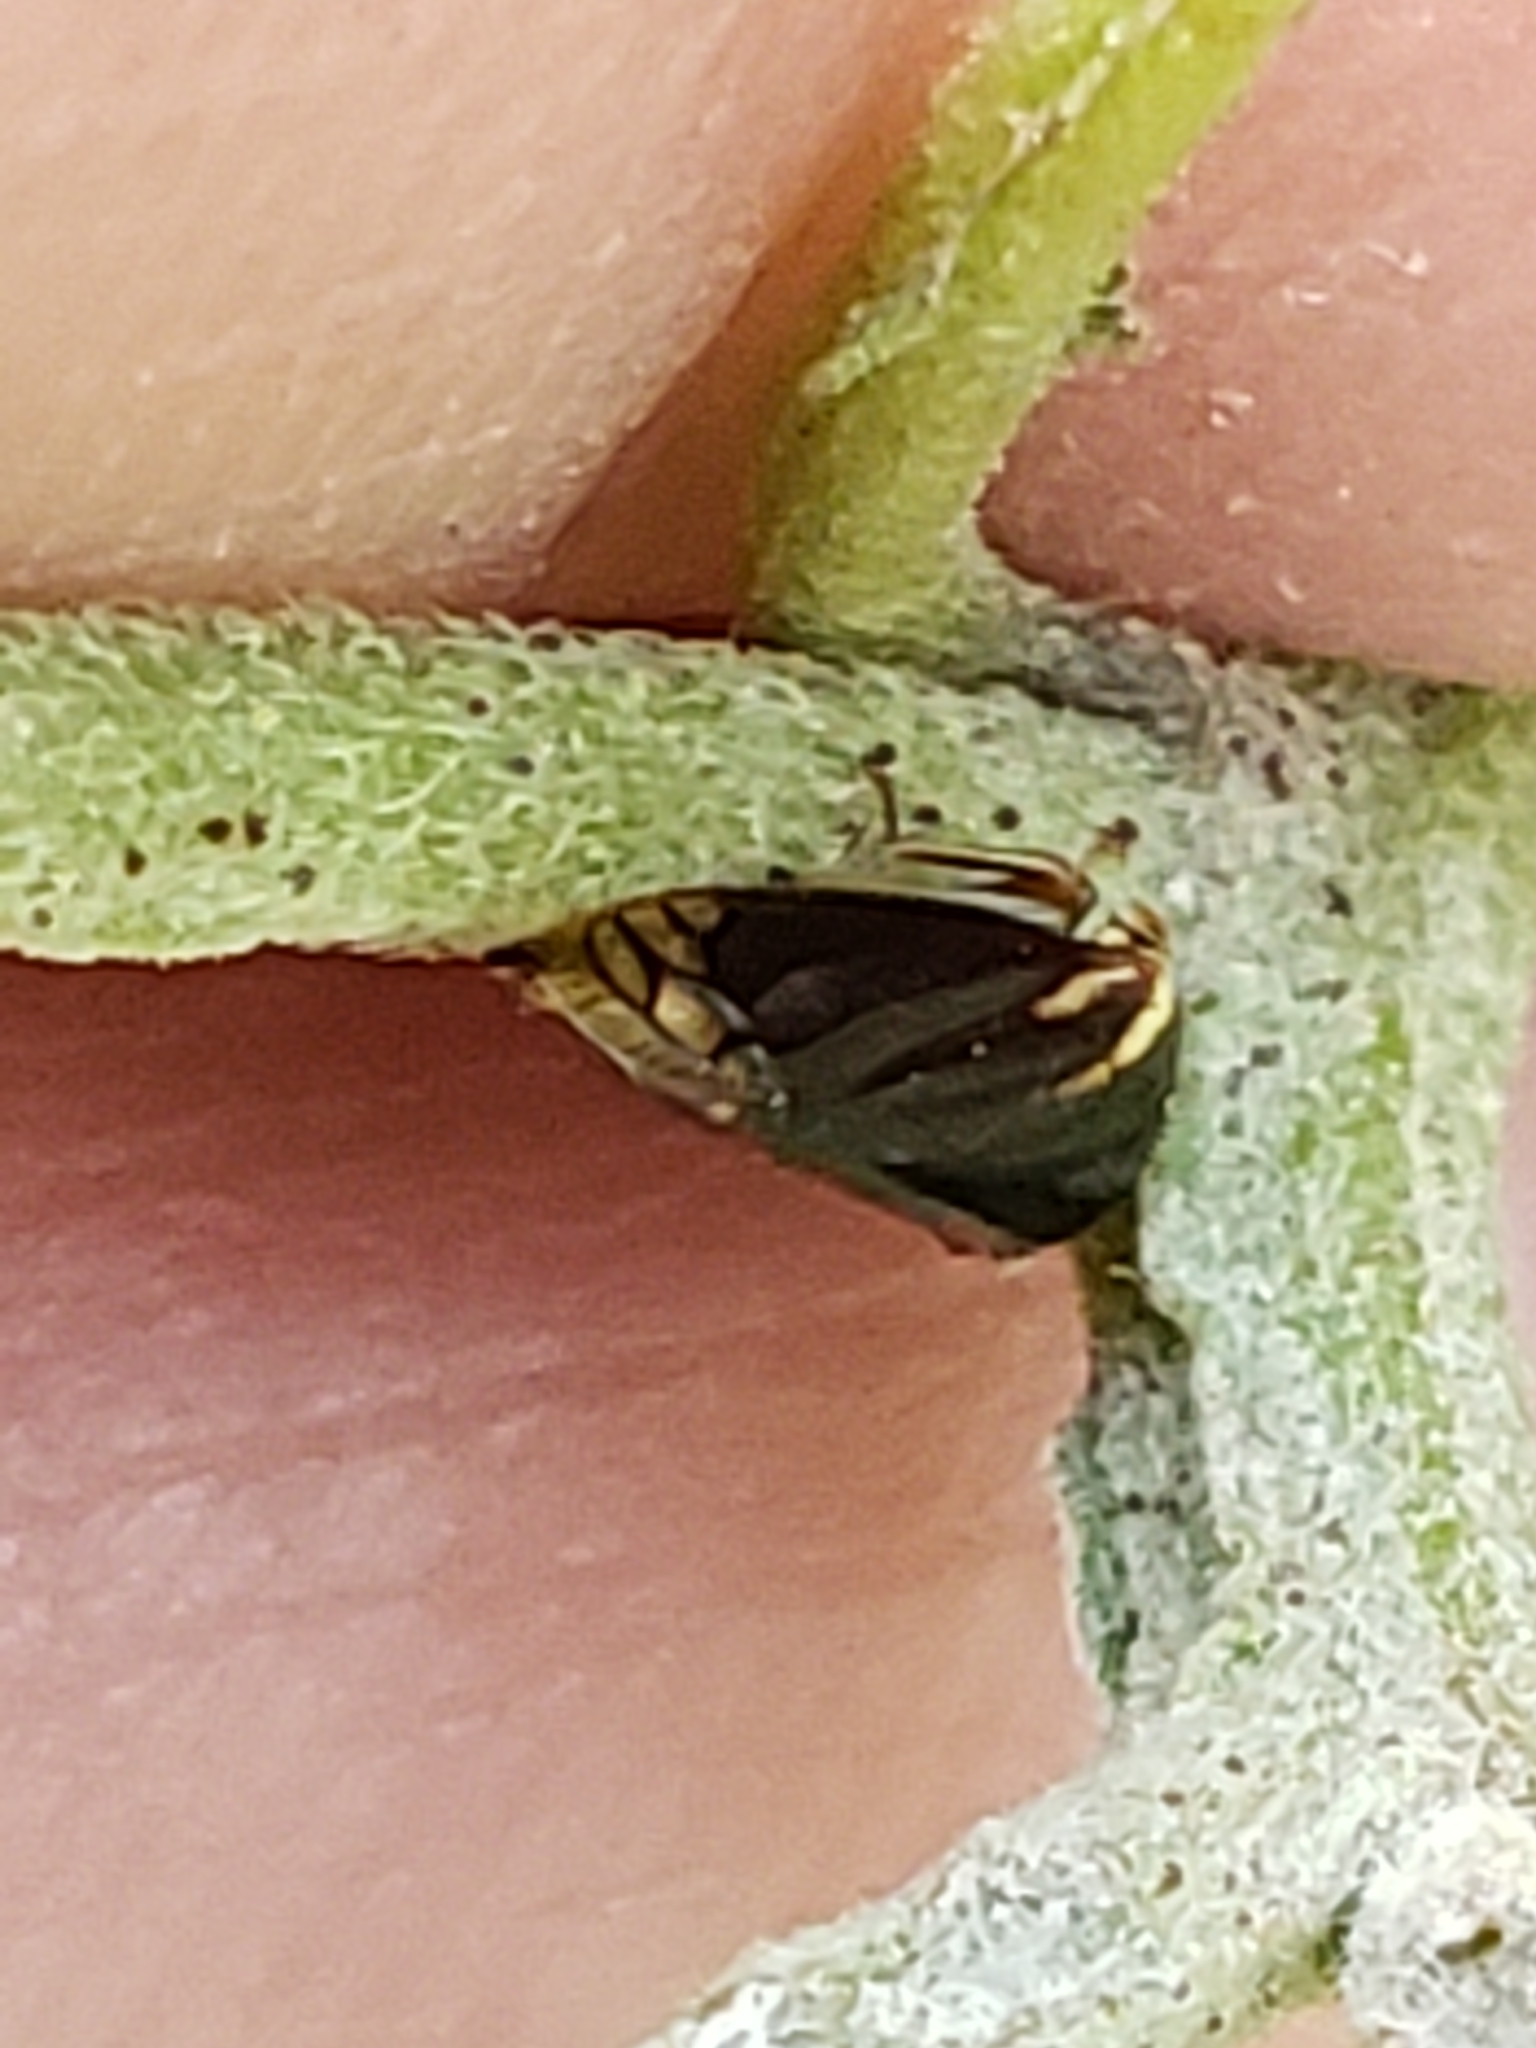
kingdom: Animalia
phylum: Arthropoda
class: Insecta
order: Hemiptera
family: Membracidae
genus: Acutalis
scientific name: Acutalis tartarea
